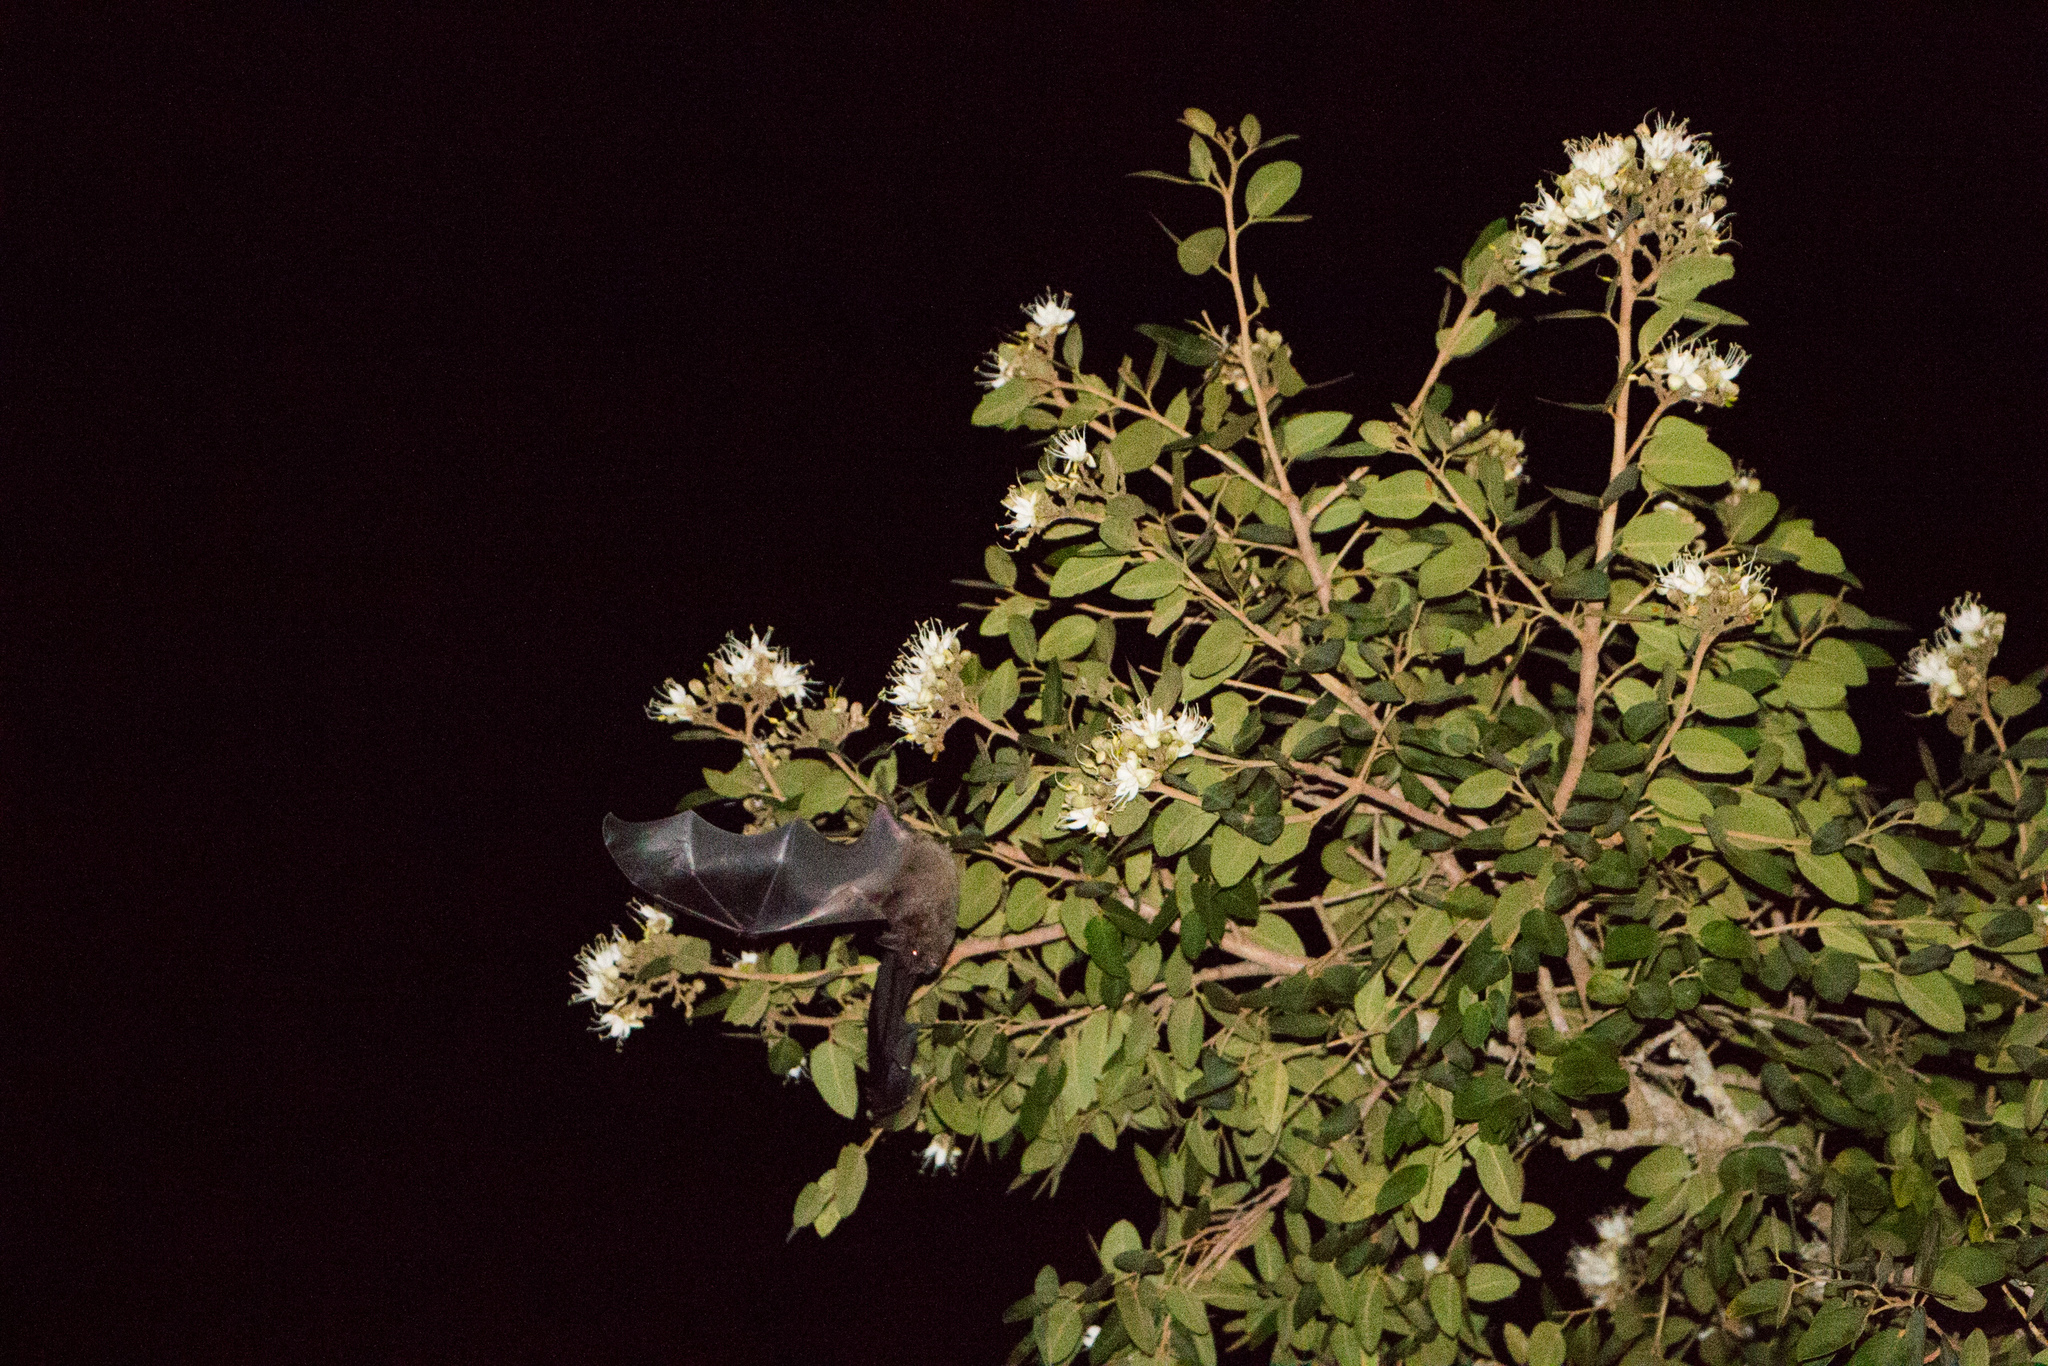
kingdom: Animalia
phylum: Chordata
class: Mammalia
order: Chiroptera
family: Phyllostomidae
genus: Phyllostomus
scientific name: Phyllostomus hastatus
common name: Greater spear-nosed bat
